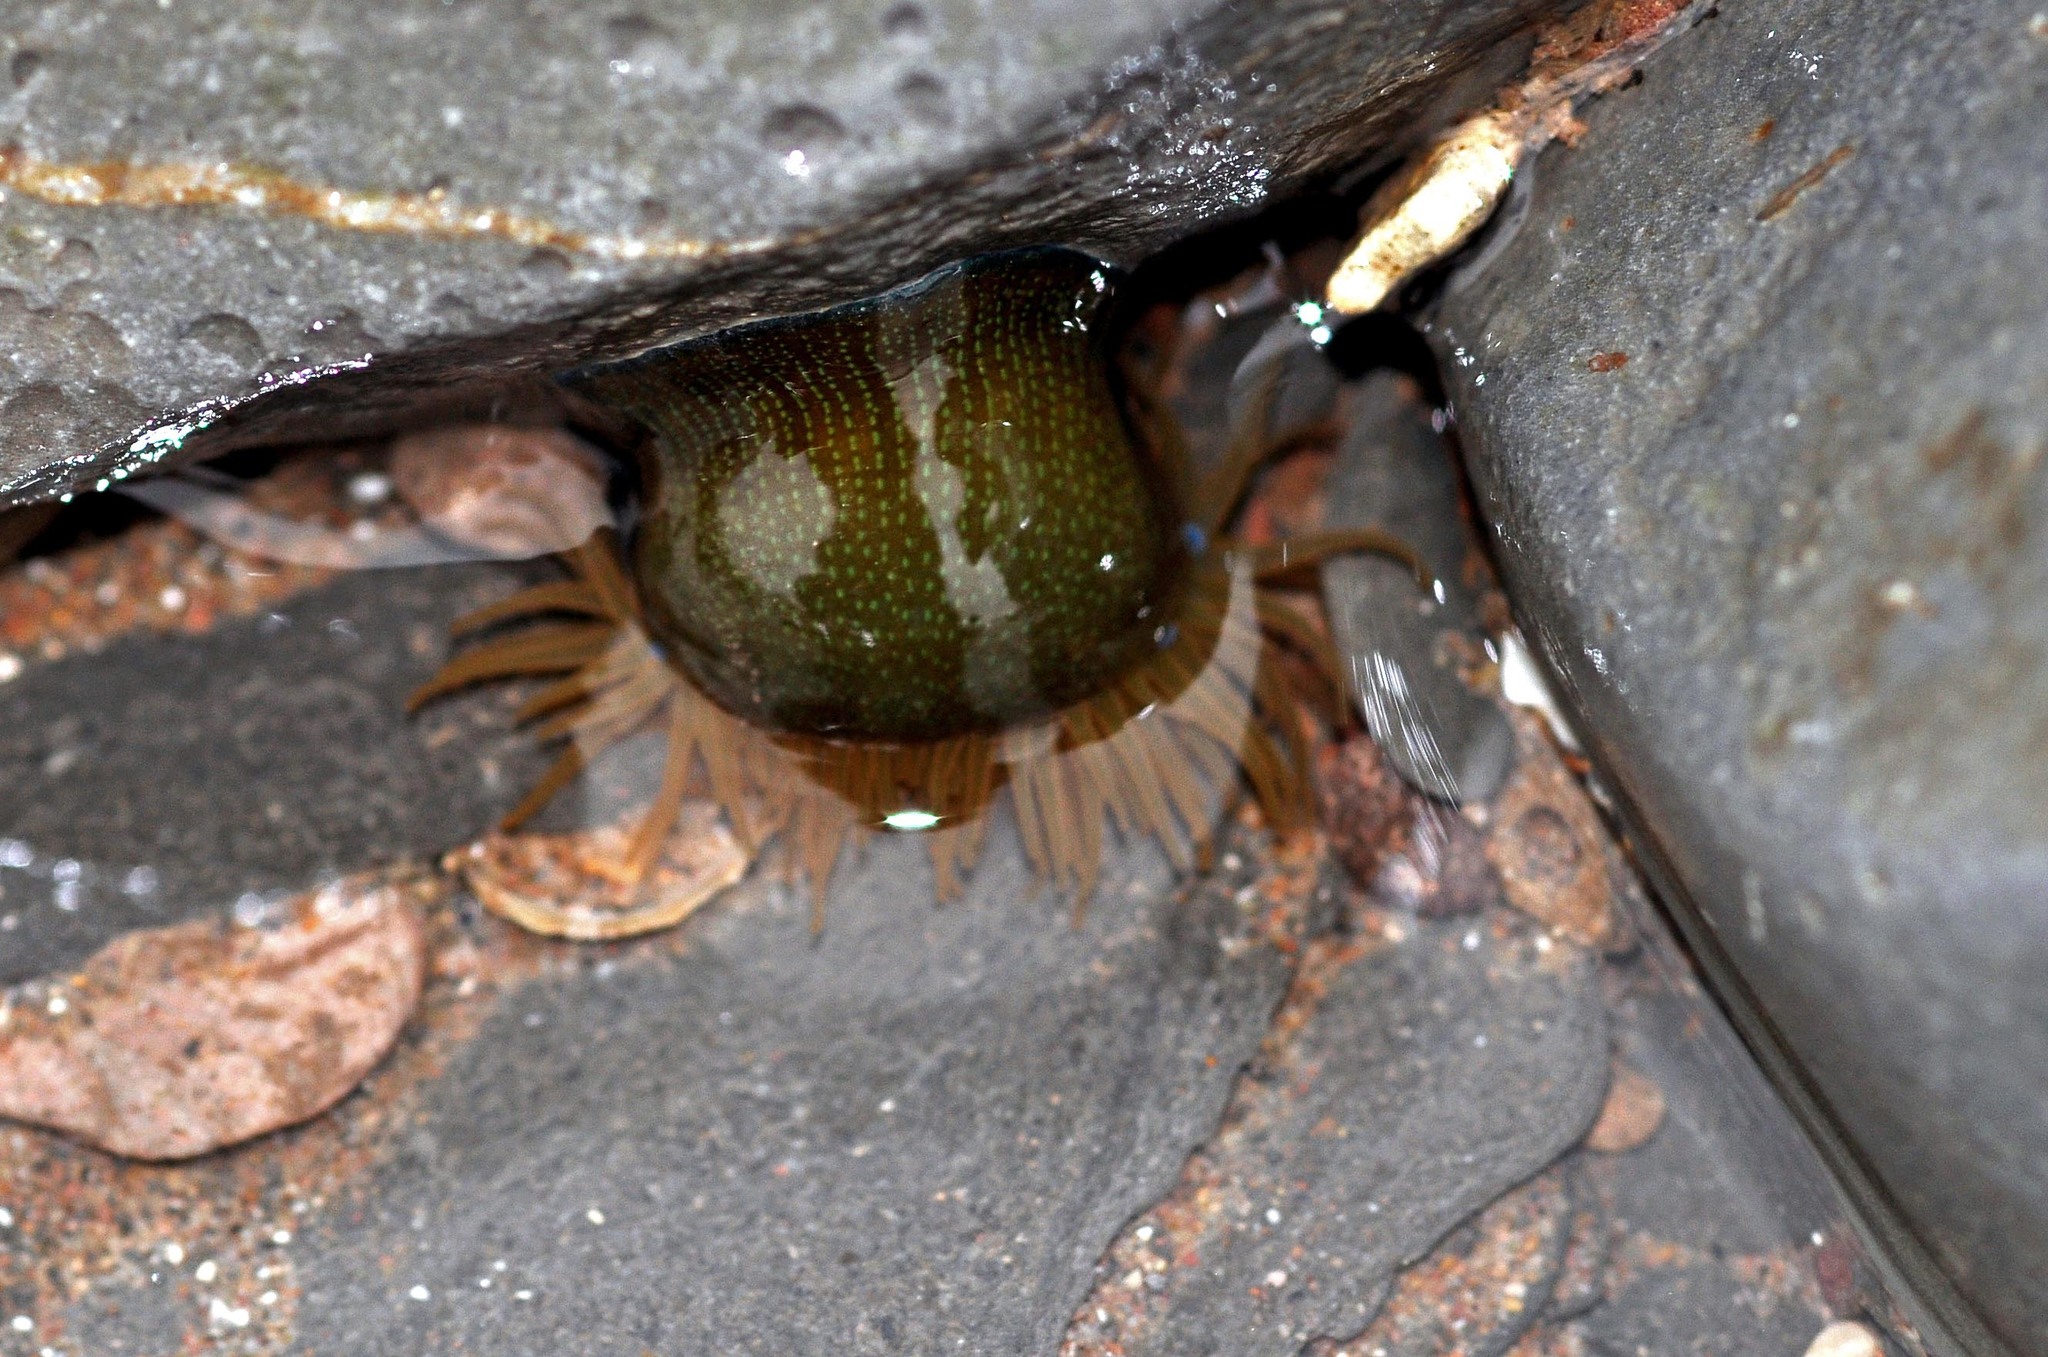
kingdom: Animalia
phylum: Cnidaria
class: Anthozoa
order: Actiniaria
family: Actiniidae
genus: Actinia
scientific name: Actinia equina
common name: Beadlet anemone
